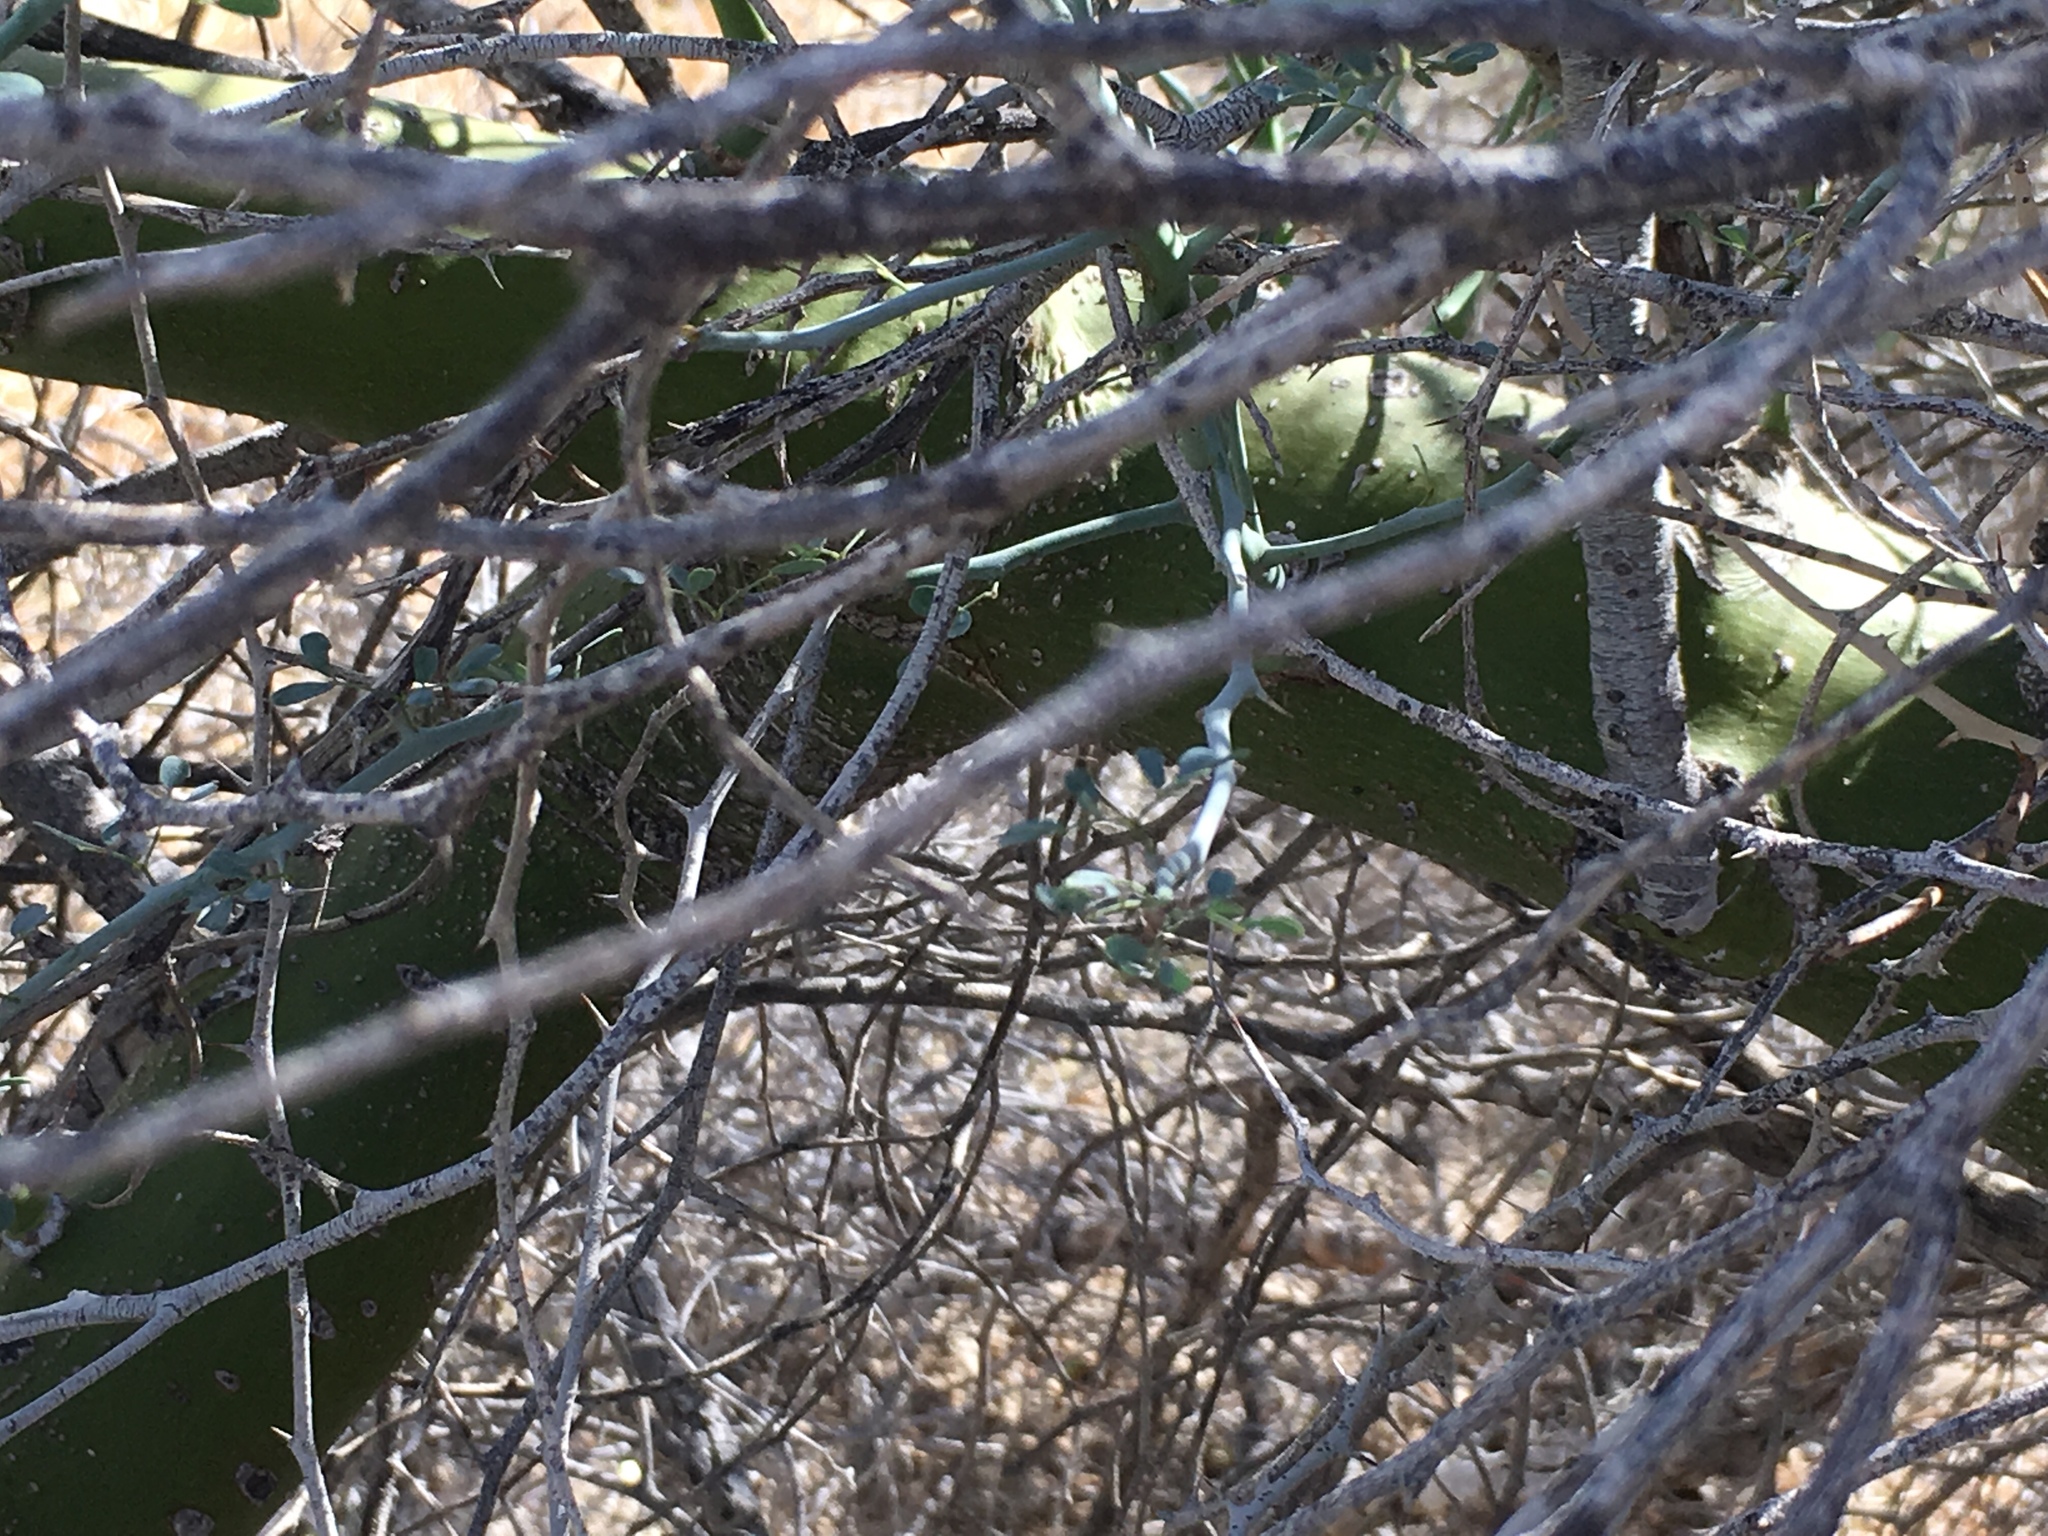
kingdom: Plantae
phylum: Tracheophyta
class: Magnoliopsida
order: Fabales
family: Fabaceae
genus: Parkinsonia
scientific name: Parkinsonia florida
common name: Blue paloverde
